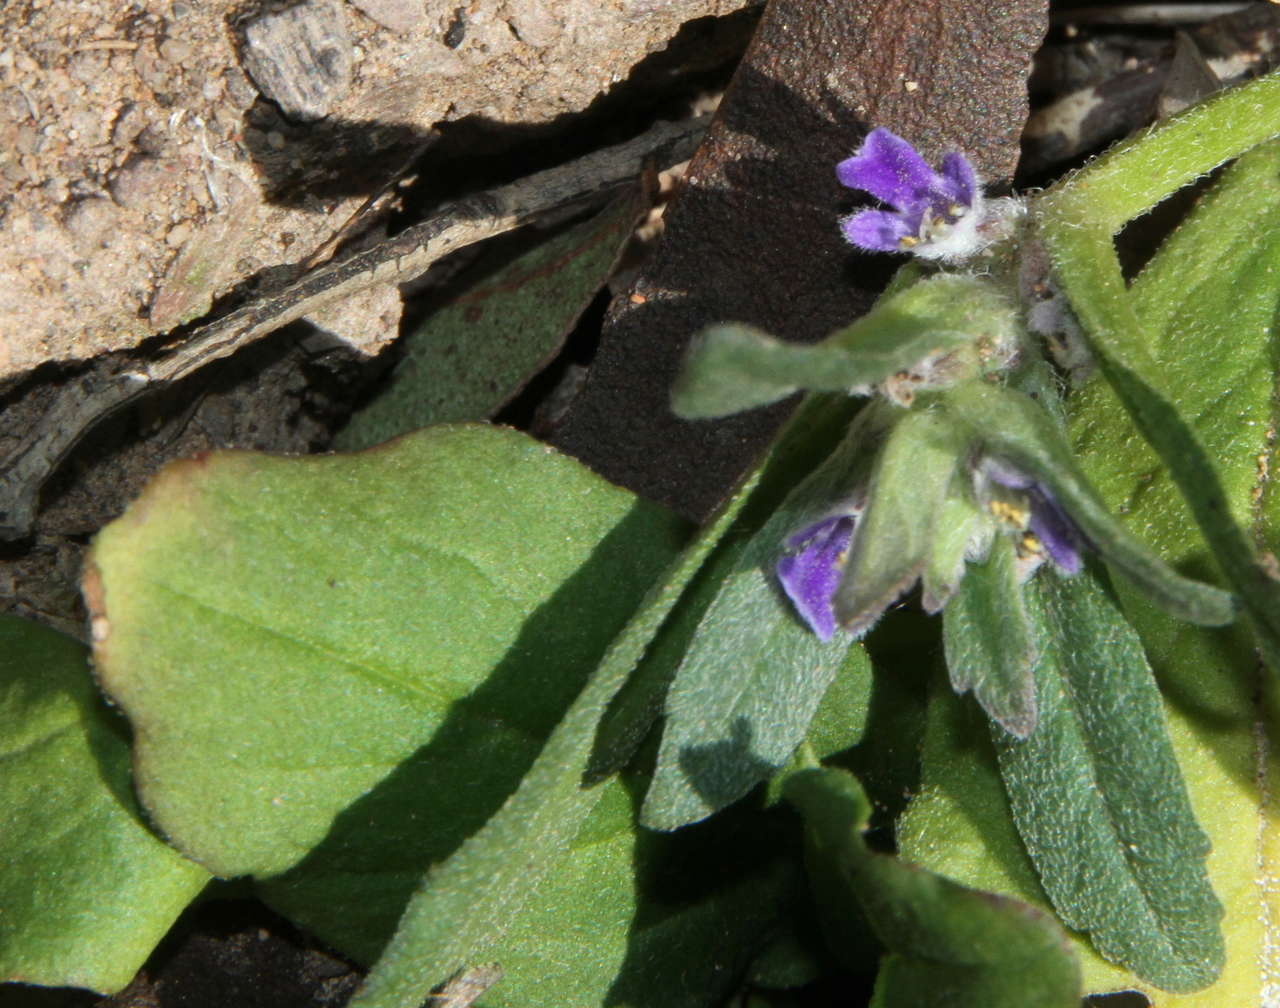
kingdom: Plantae
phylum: Tracheophyta
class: Magnoliopsida
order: Lamiales
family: Lamiaceae
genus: Ajuga
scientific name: Ajuga australis
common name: Australian bugle
